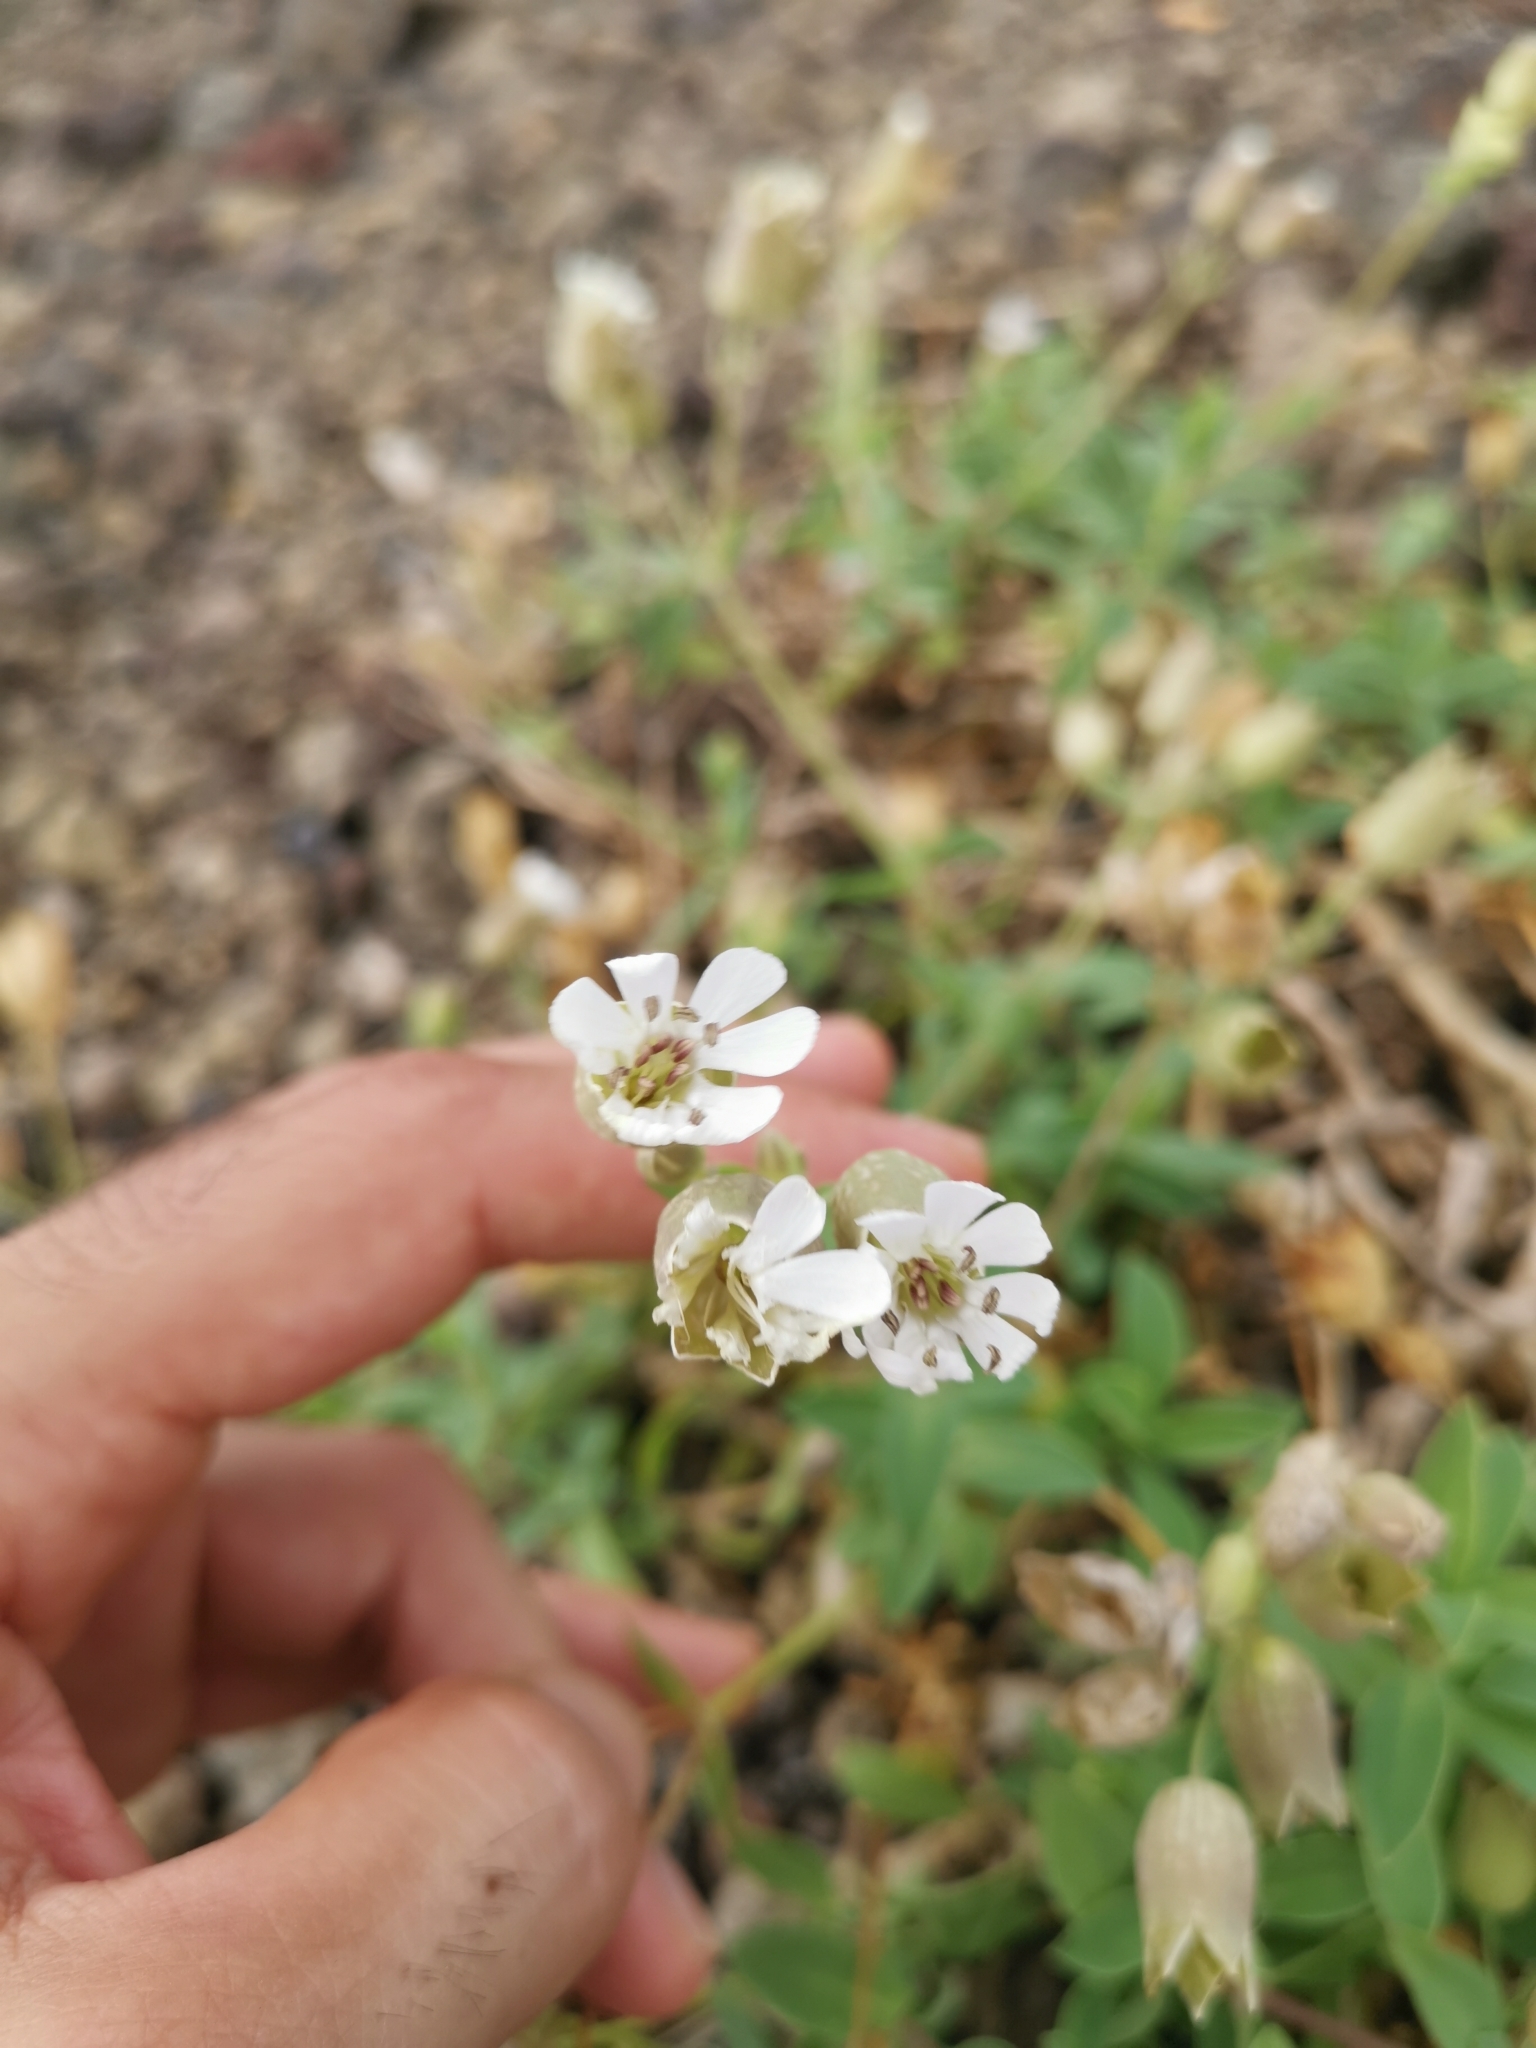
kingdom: Plantae
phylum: Tracheophyta
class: Magnoliopsida
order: Caryophyllales
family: Caryophyllaceae
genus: Silene
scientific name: Silene uniflora
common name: Sea campion
